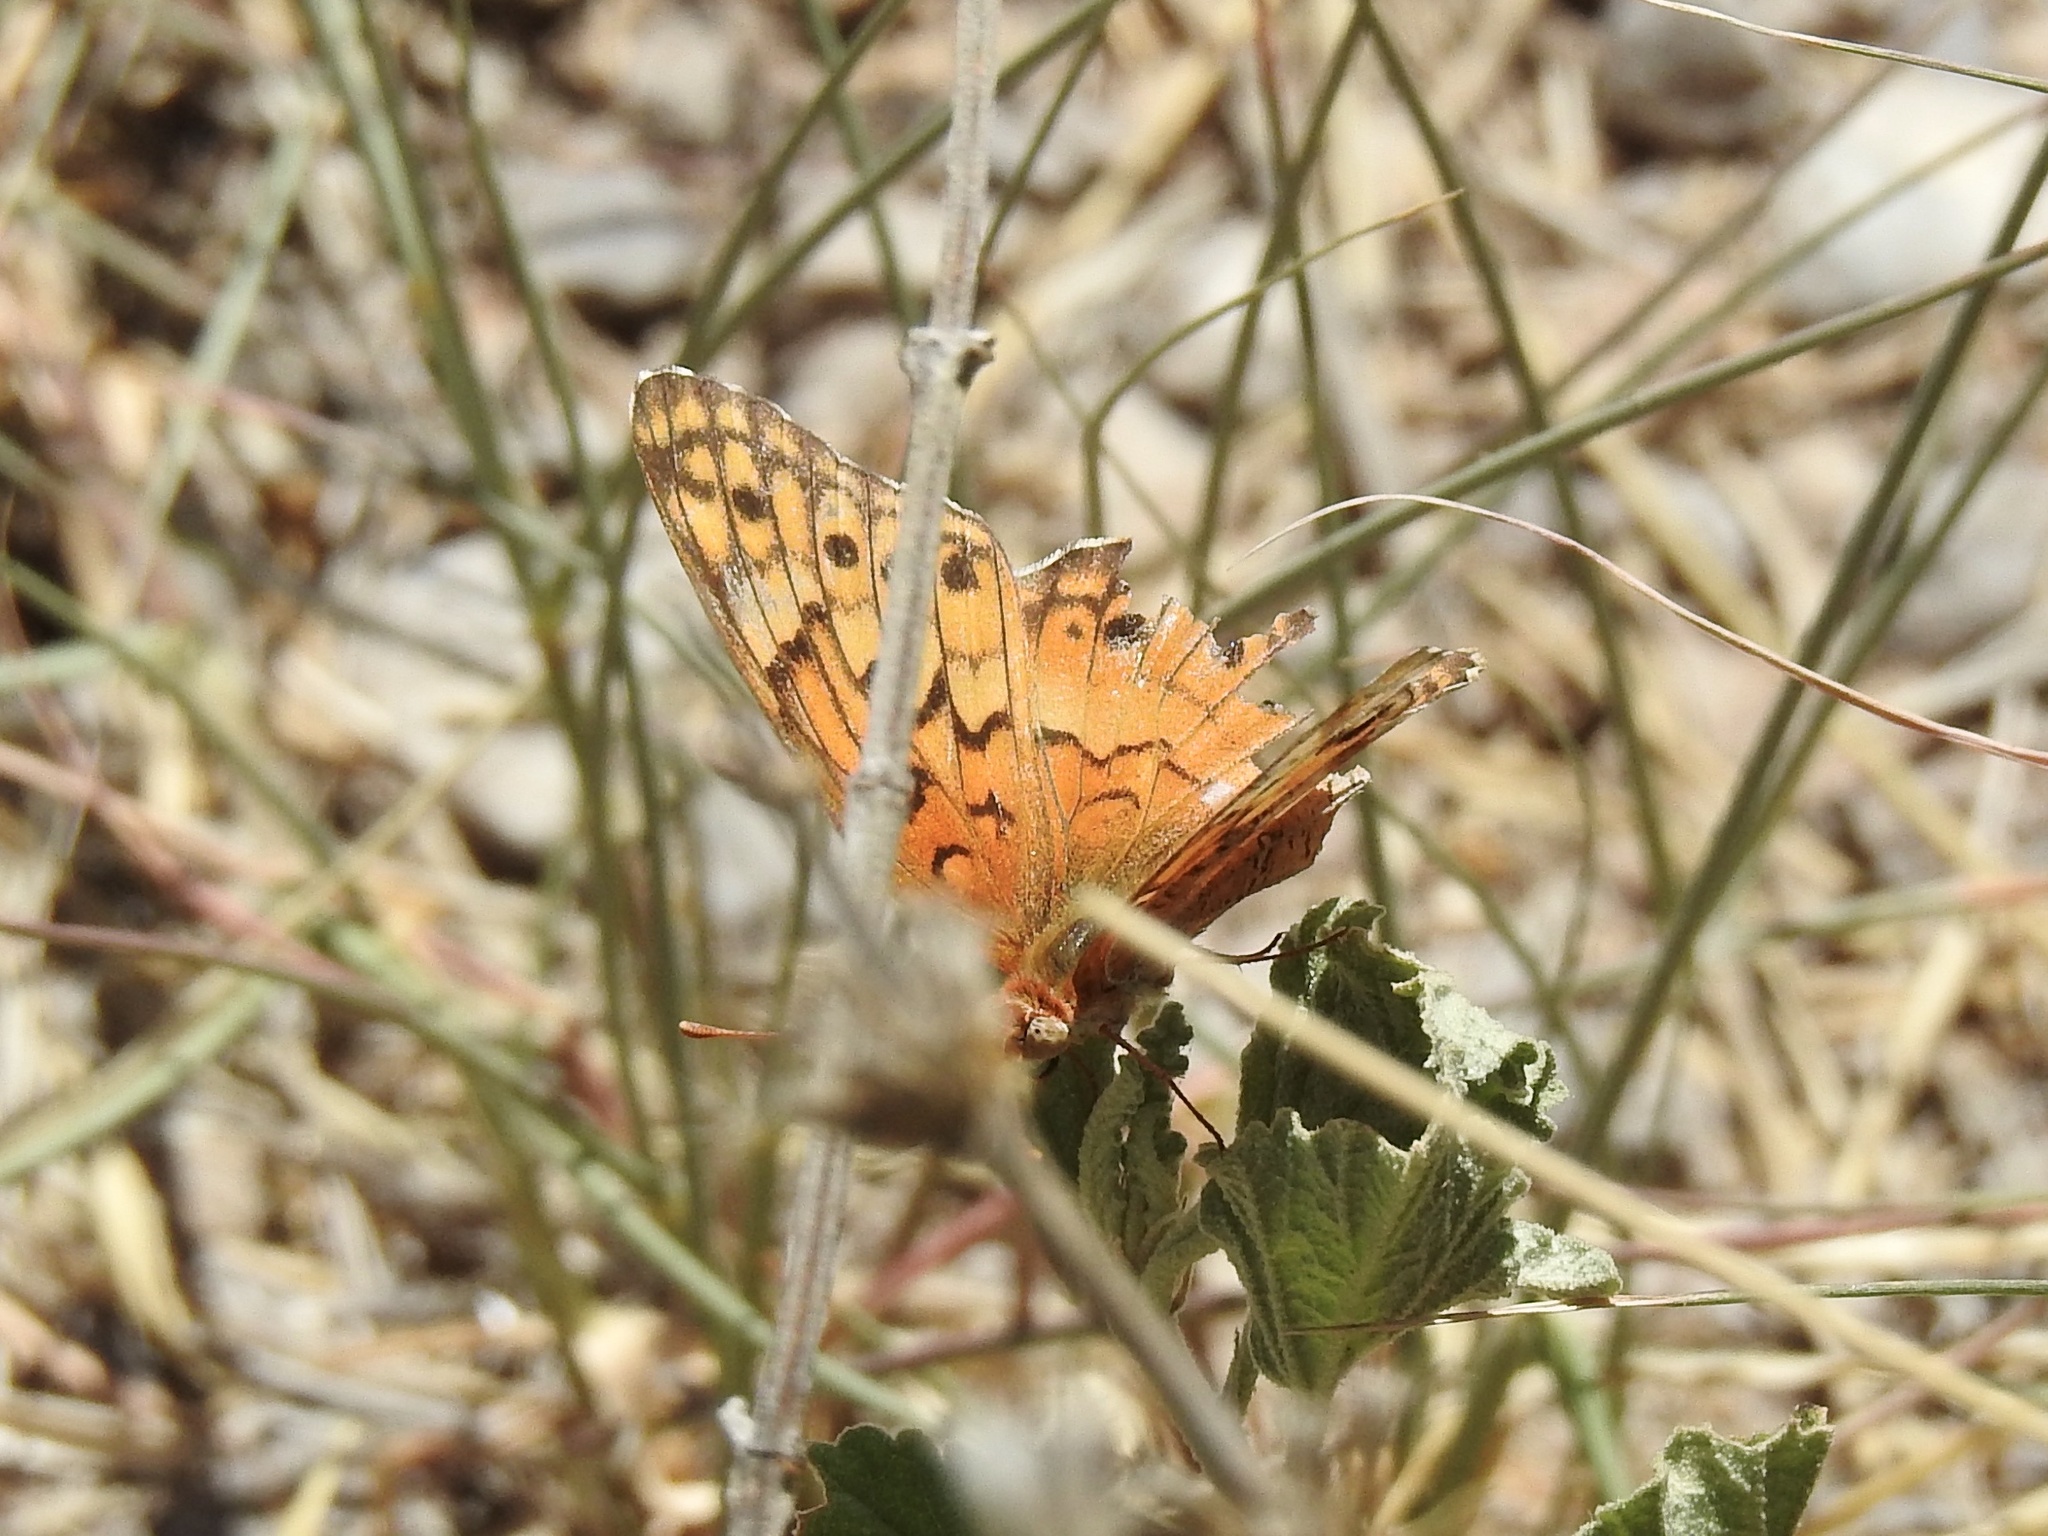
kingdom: Animalia
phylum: Arthropoda
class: Insecta
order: Lepidoptera
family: Nymphalidae
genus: Euptoieta
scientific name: Euptoieta claudia
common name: Variegated fritillary
